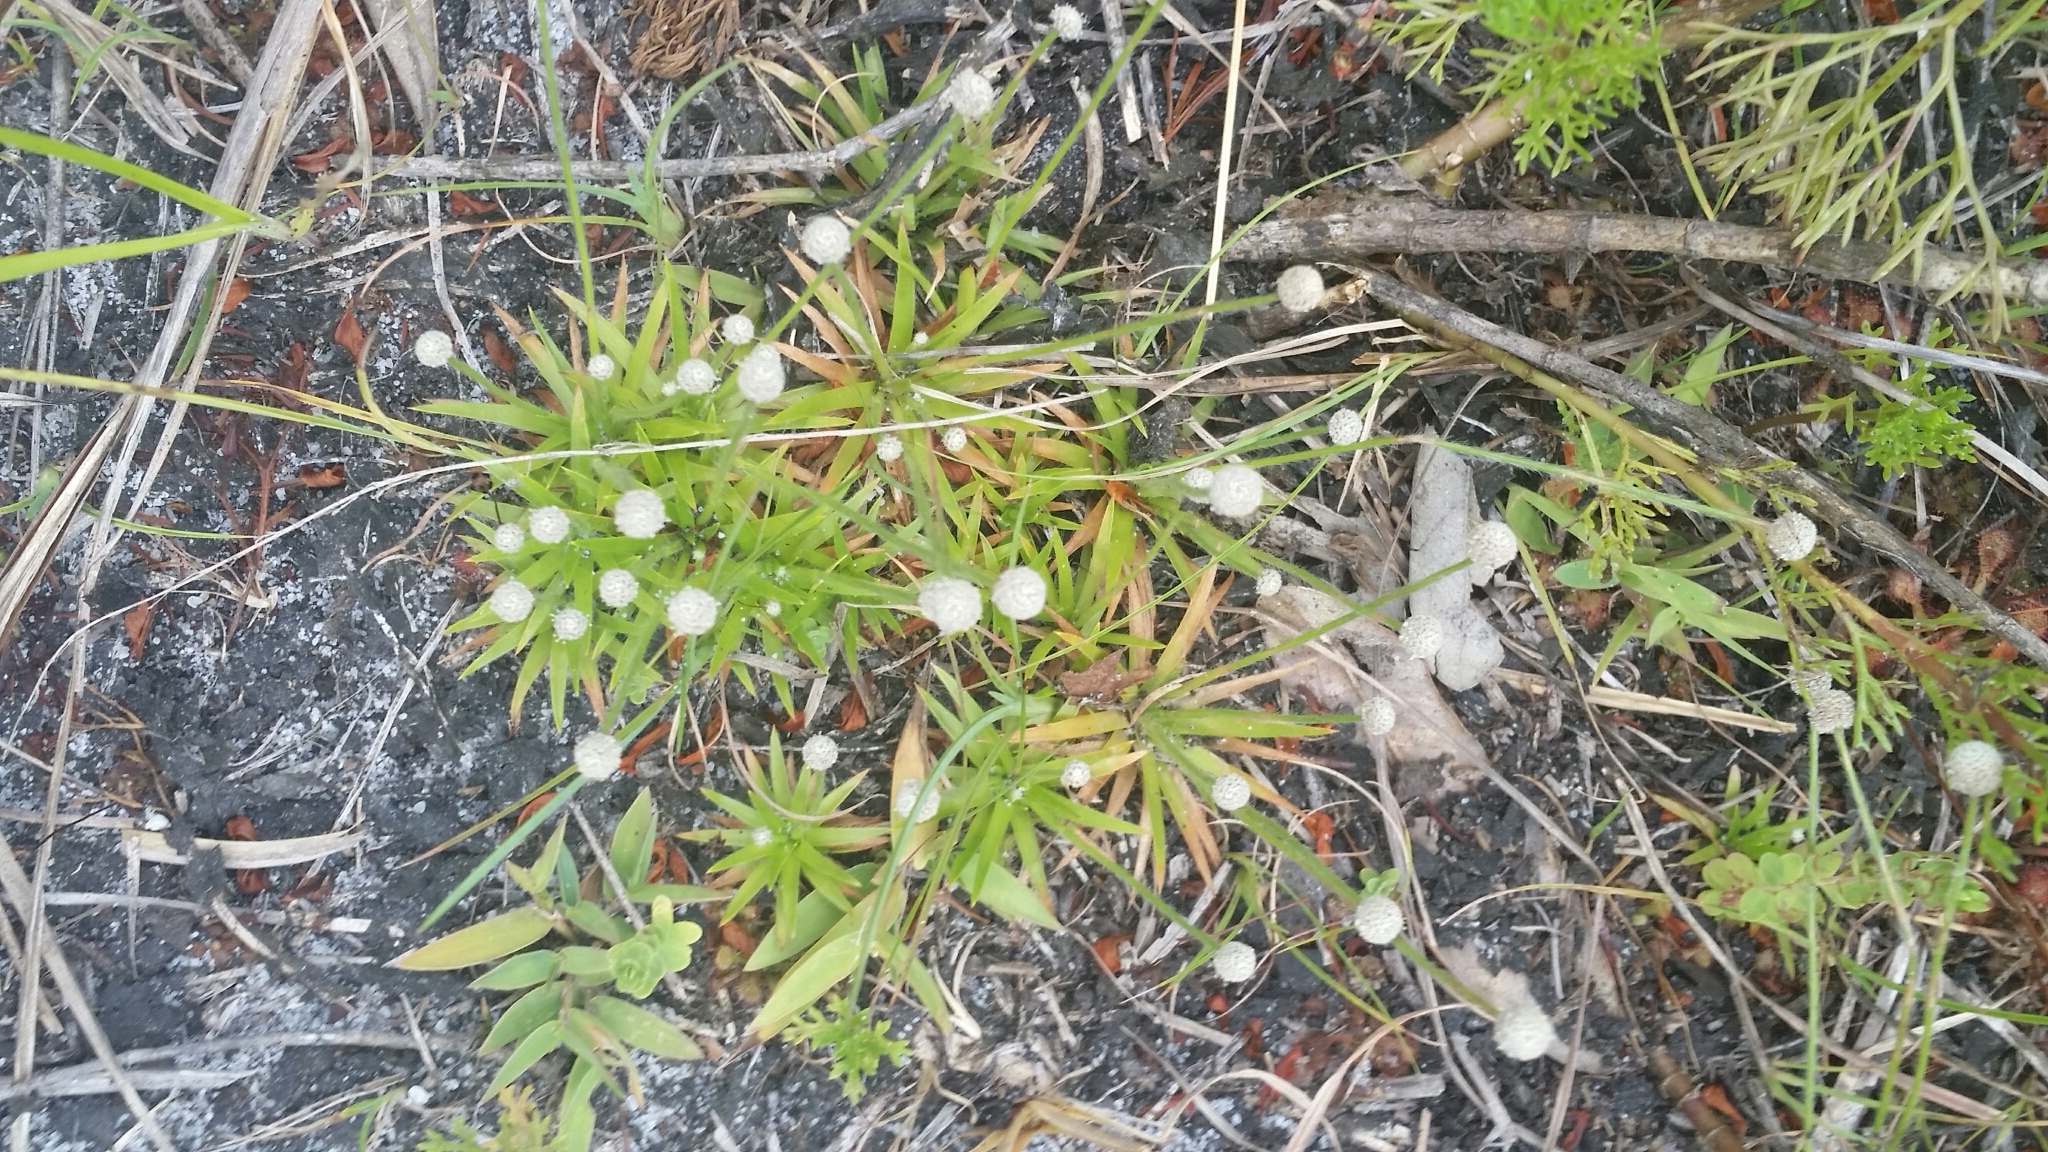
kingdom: Plantae
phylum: Tracheophyta
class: Liliopsida
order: Poales
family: Eriocaulaceae
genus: Paepalanthus
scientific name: Paepalanthus minus
